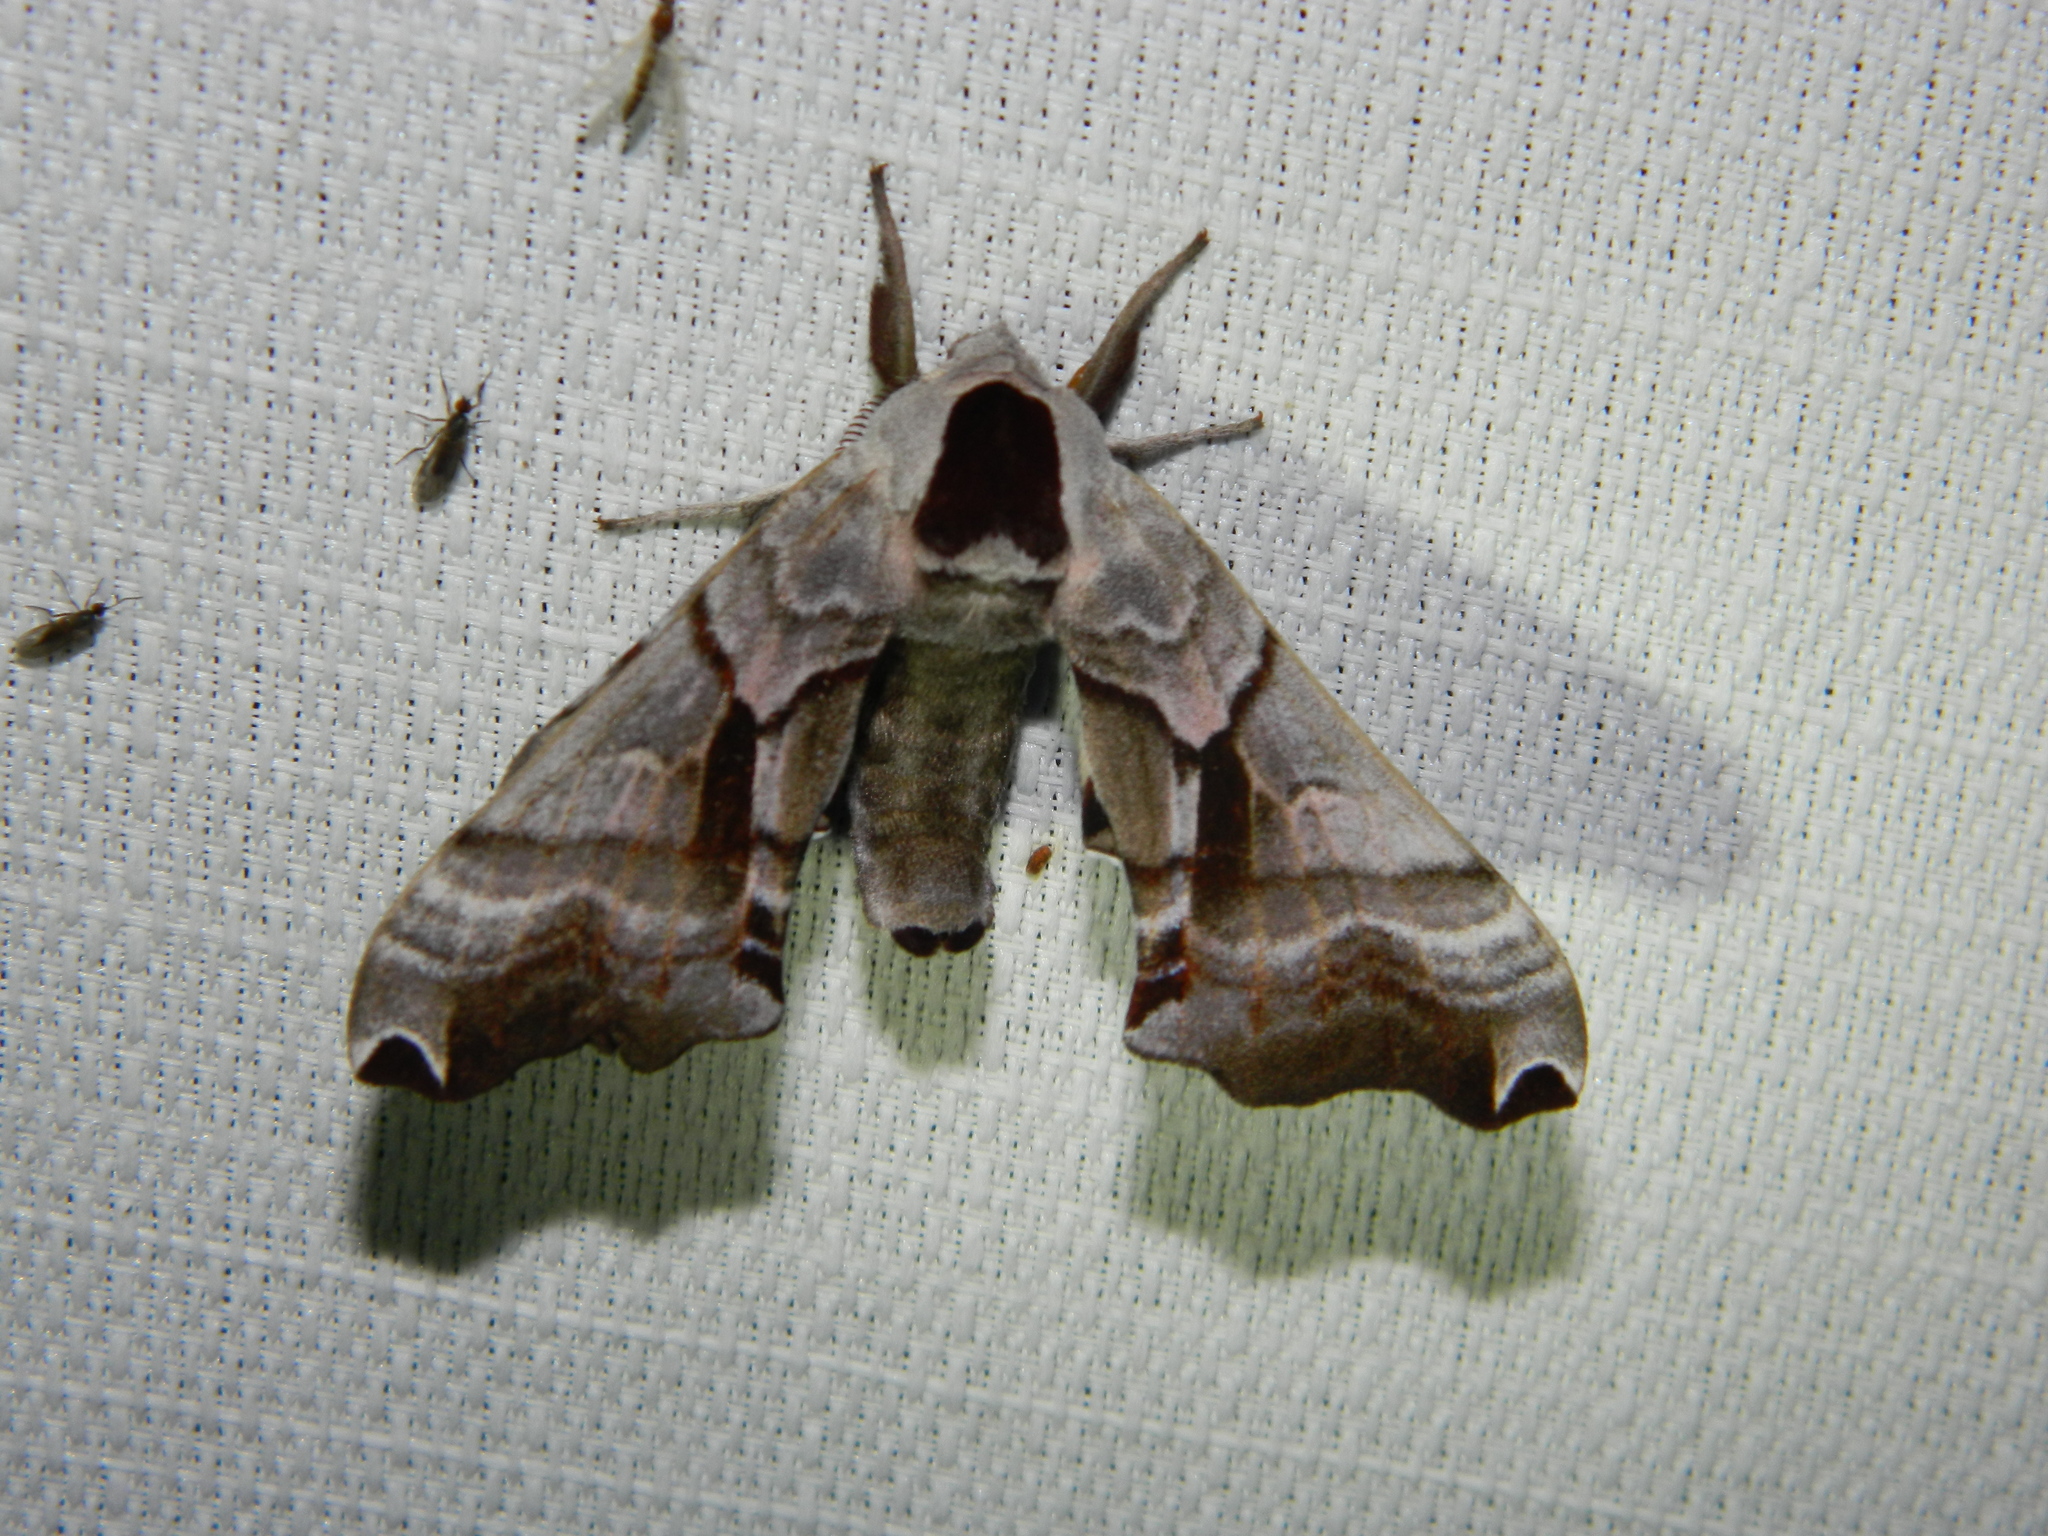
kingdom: Animalia
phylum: Arthropoda
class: Insecta
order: Lepidoptera
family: Sphingidae
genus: Smerinthus
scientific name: Smerinthus jamaicensis
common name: Twin spotted sphinx
